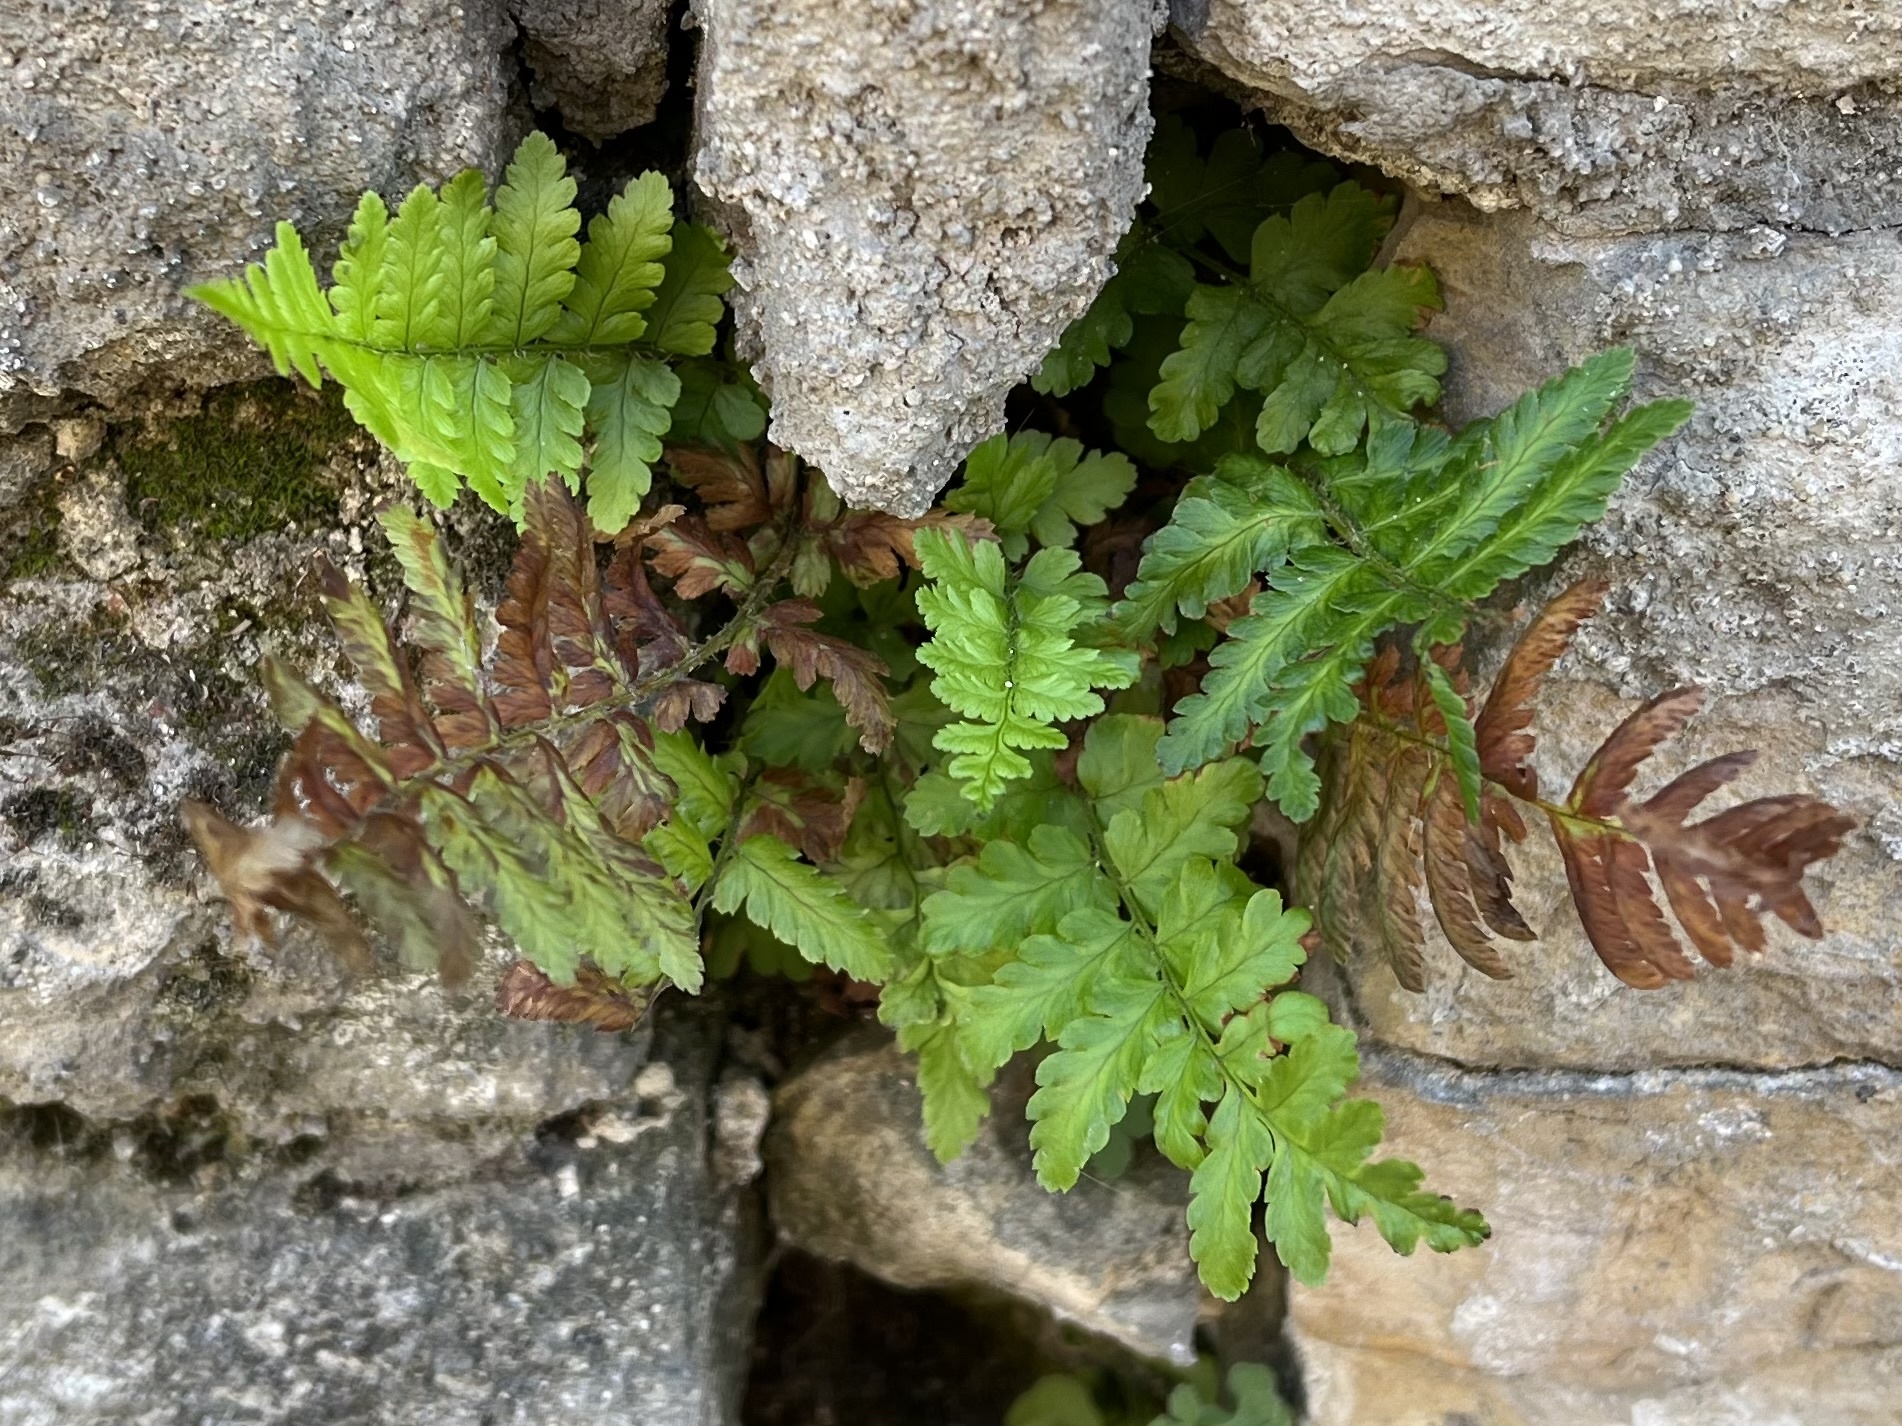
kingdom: Plantae
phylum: Tracheophyta
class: Polypodiopsida
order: Polypodiales
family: Dryopteridaceae
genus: Dryopteris
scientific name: Dryopteris filix-mas
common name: Male fern
